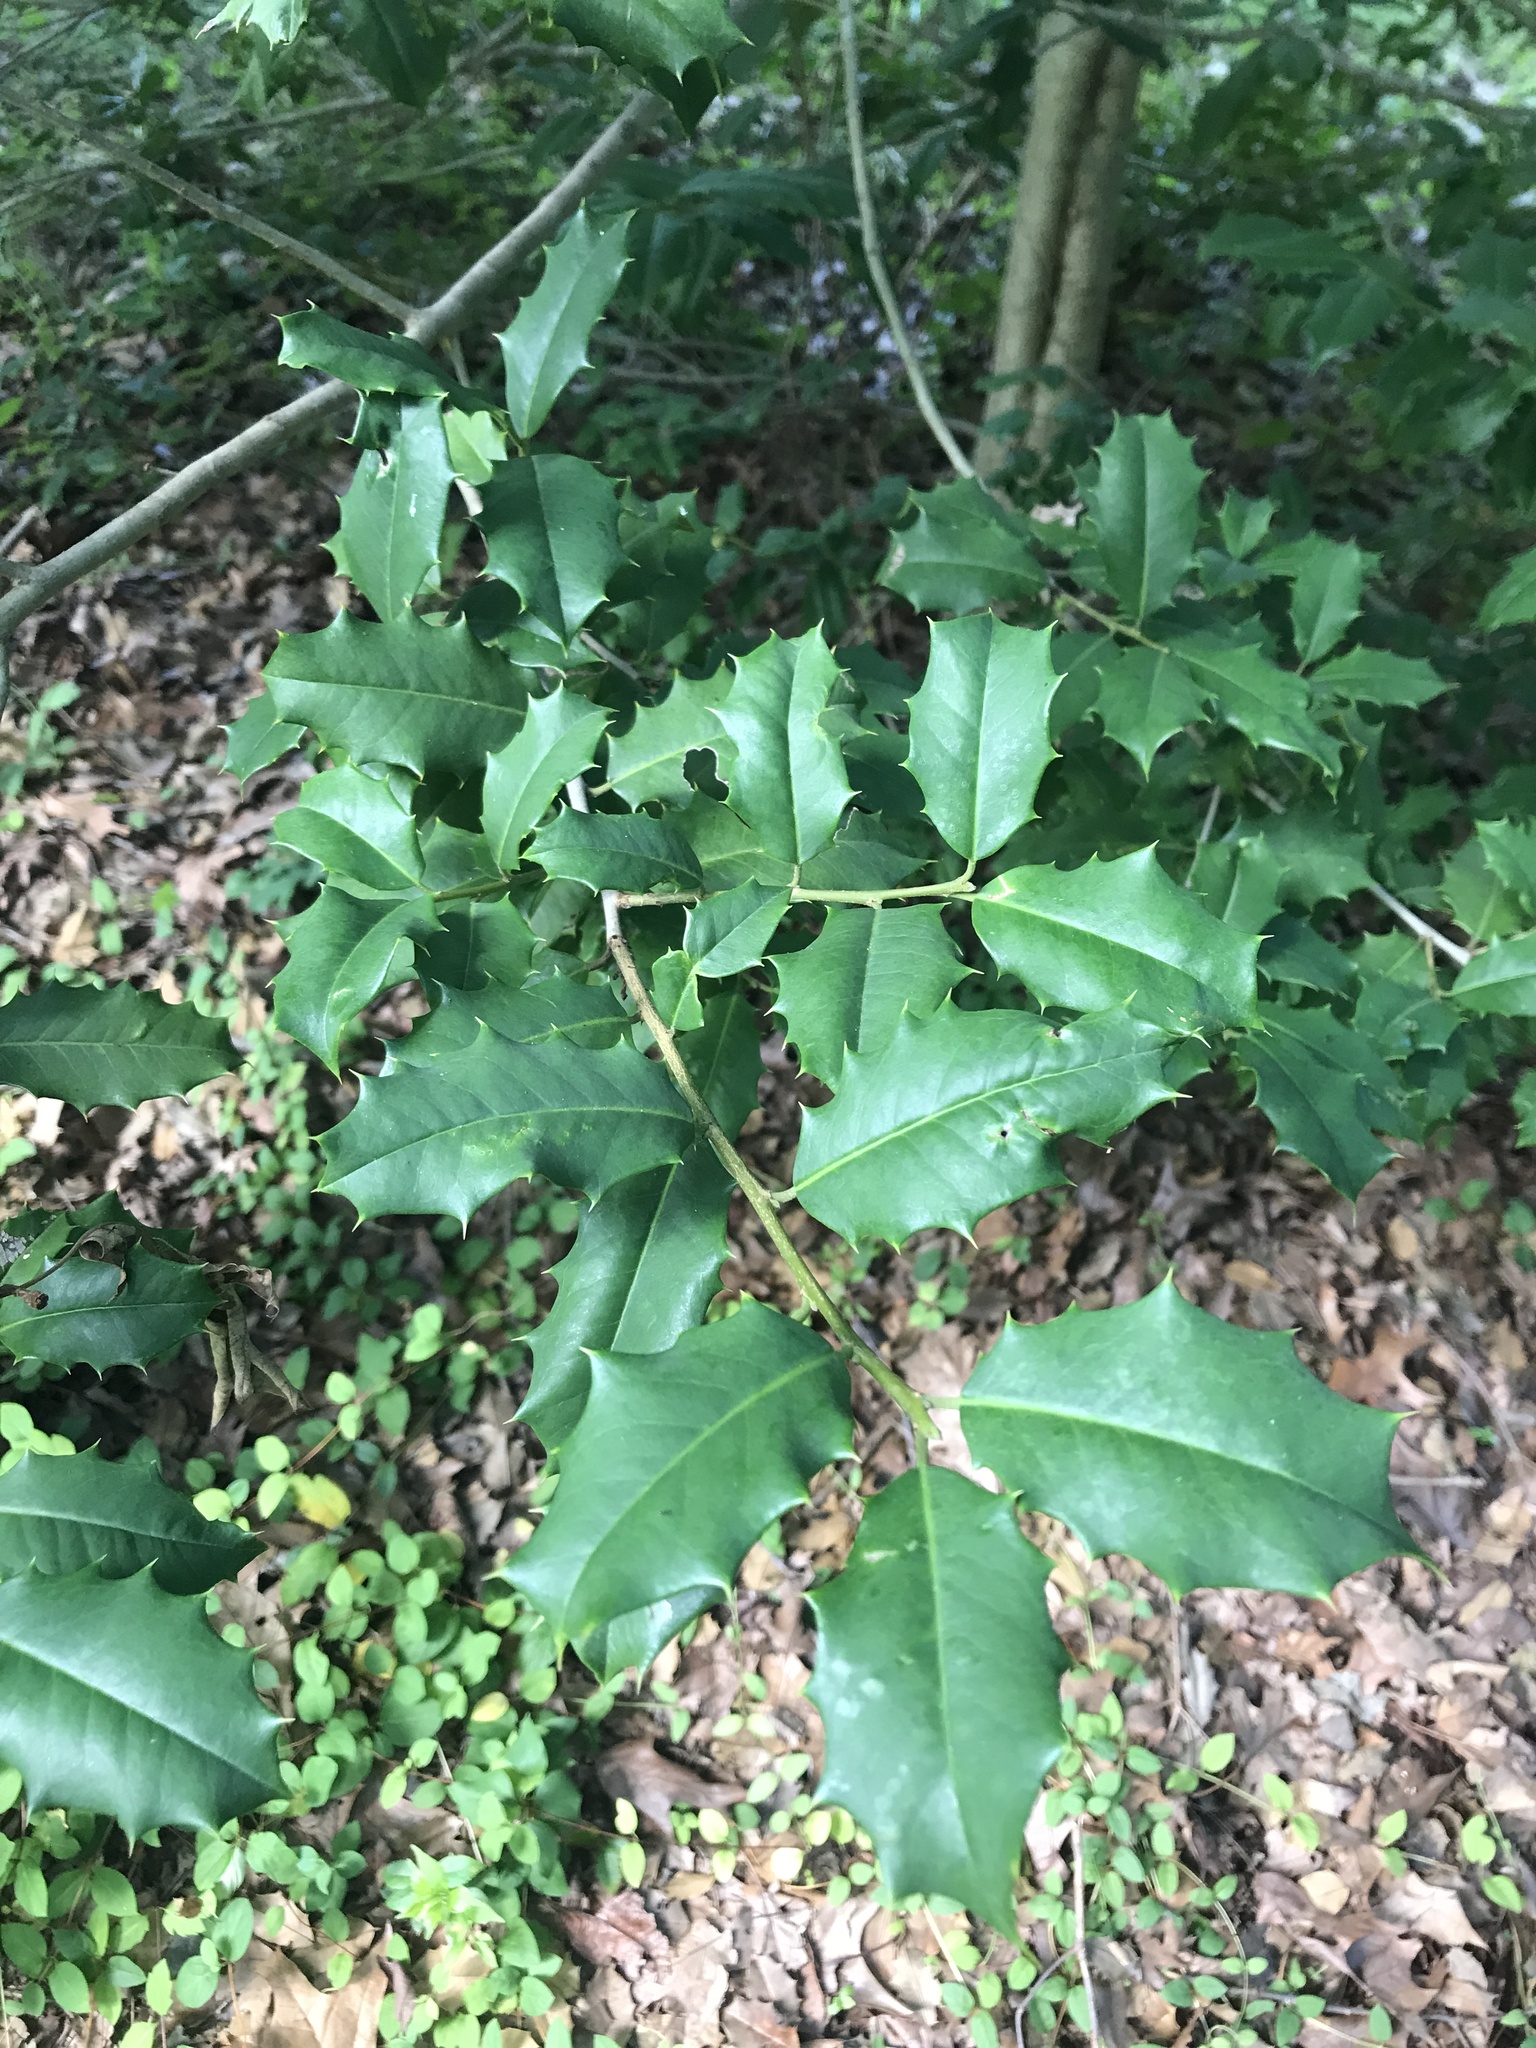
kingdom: Plantae
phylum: Tracheophyta
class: Magnoliopsida
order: Aquifoliales
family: Aquifoliaceae
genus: Ilex
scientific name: Ilex opaca
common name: American holly
